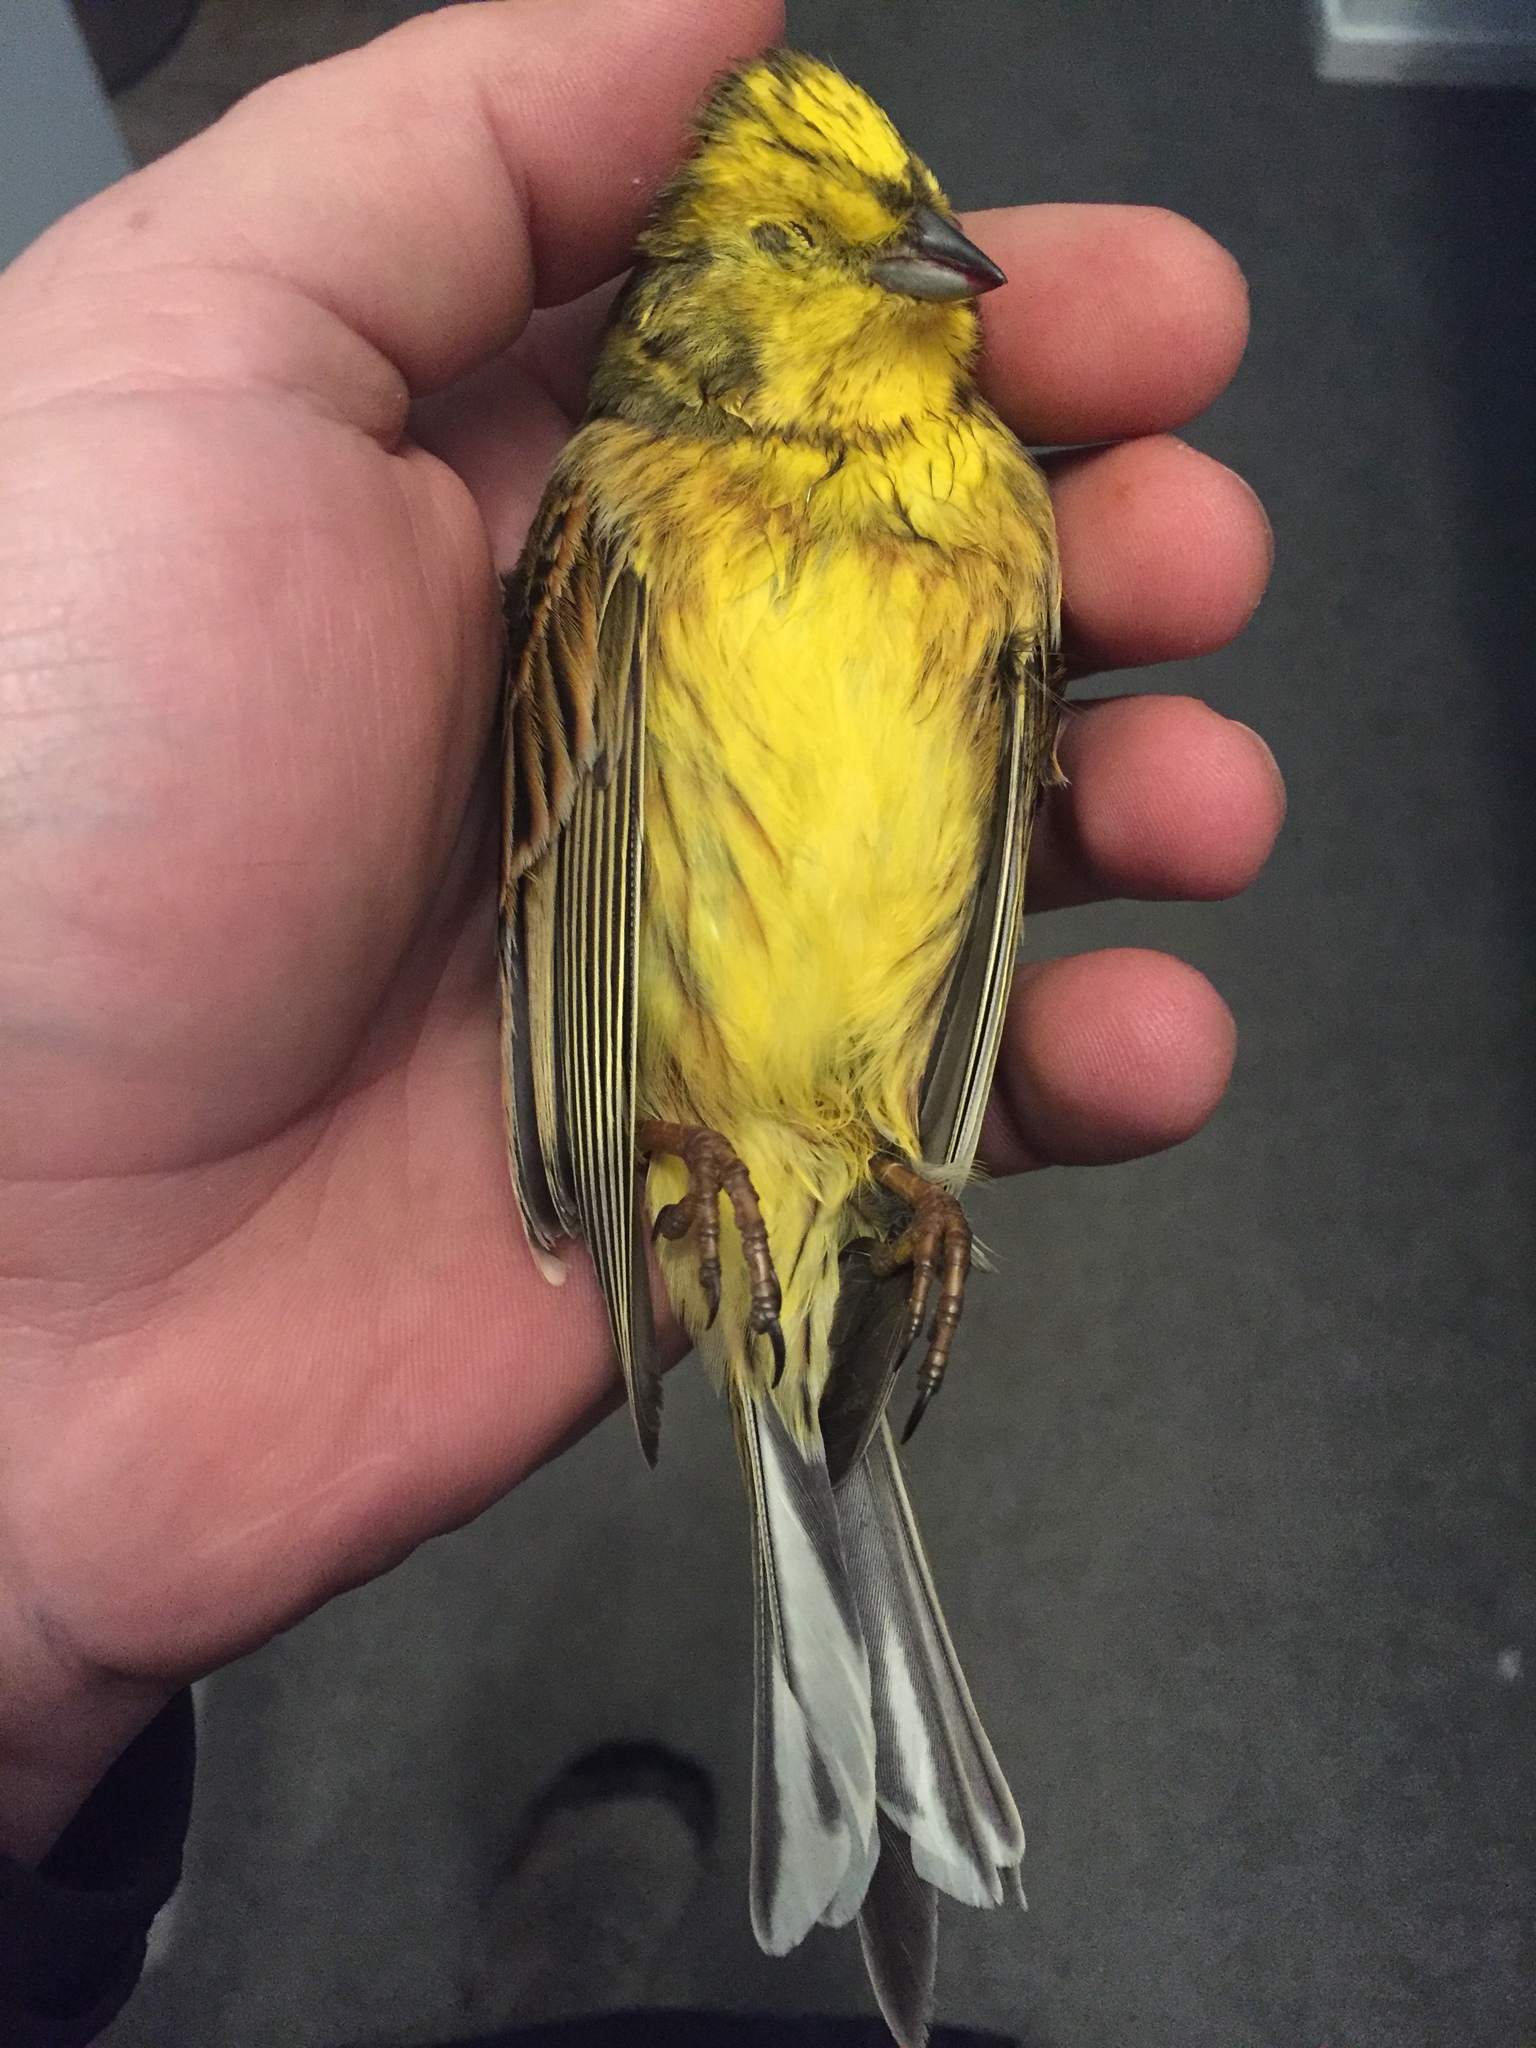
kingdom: Animalia
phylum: Chordata
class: Aves
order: Passeriformes
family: Emberizidae
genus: Emberiza
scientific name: Emberiza citrinella
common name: Yellowhammer
